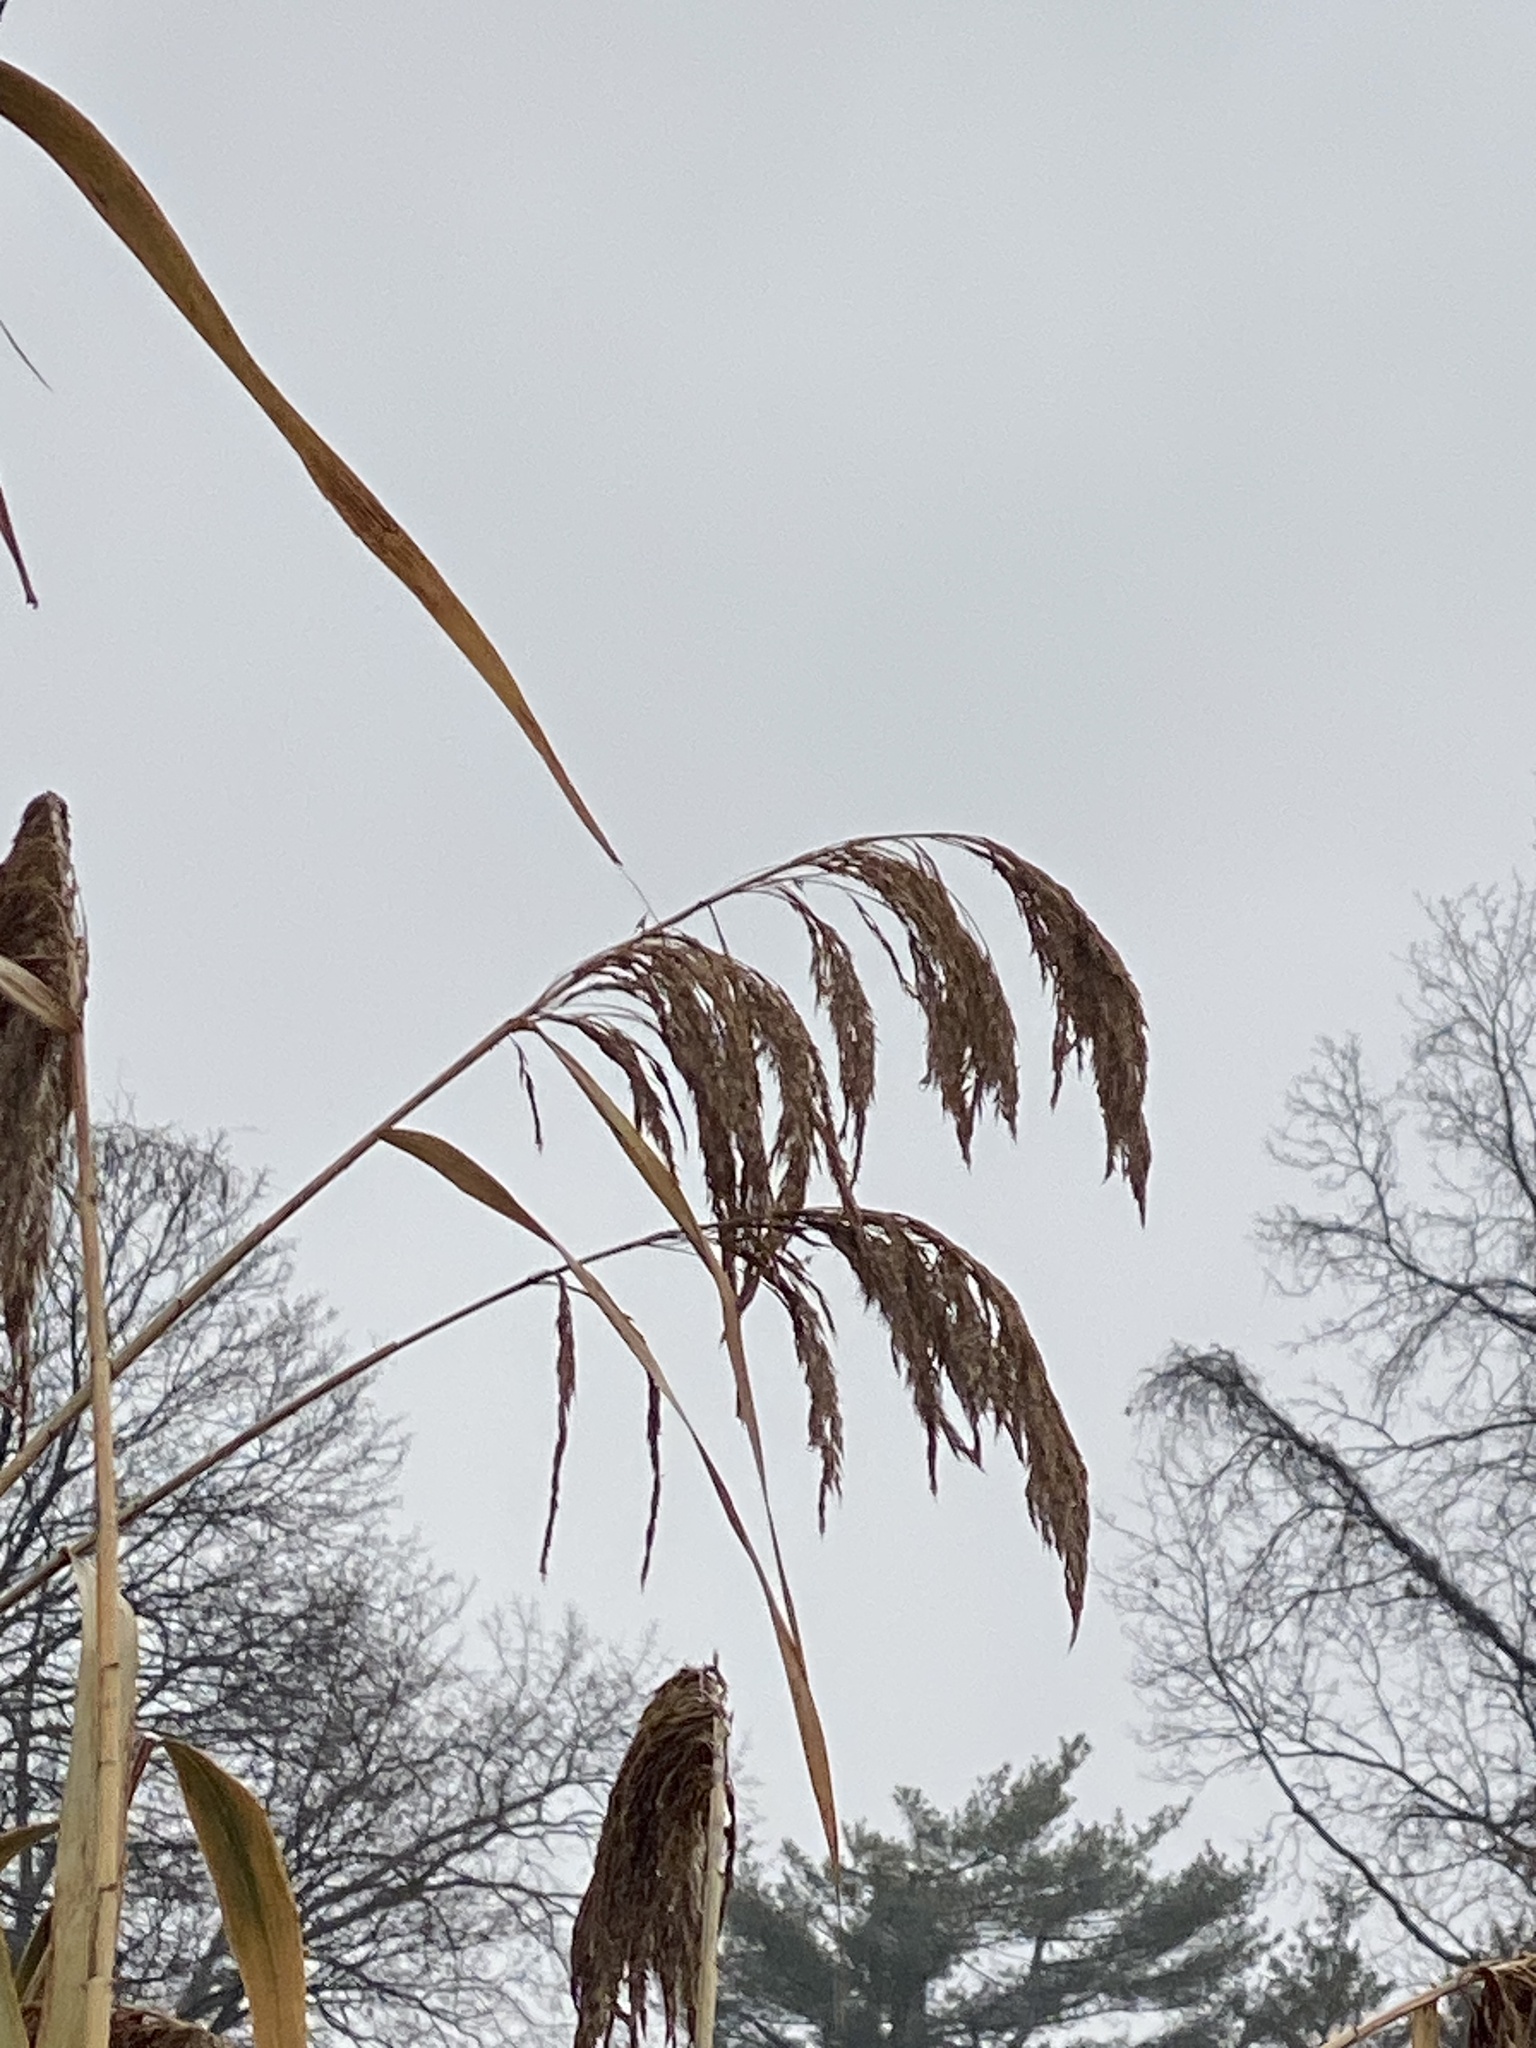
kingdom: Plantae
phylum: Tracheophyta
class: Liliopsida
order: Poales
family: Poaceae
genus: Phragmites
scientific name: Phragmites australis
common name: Common reed
